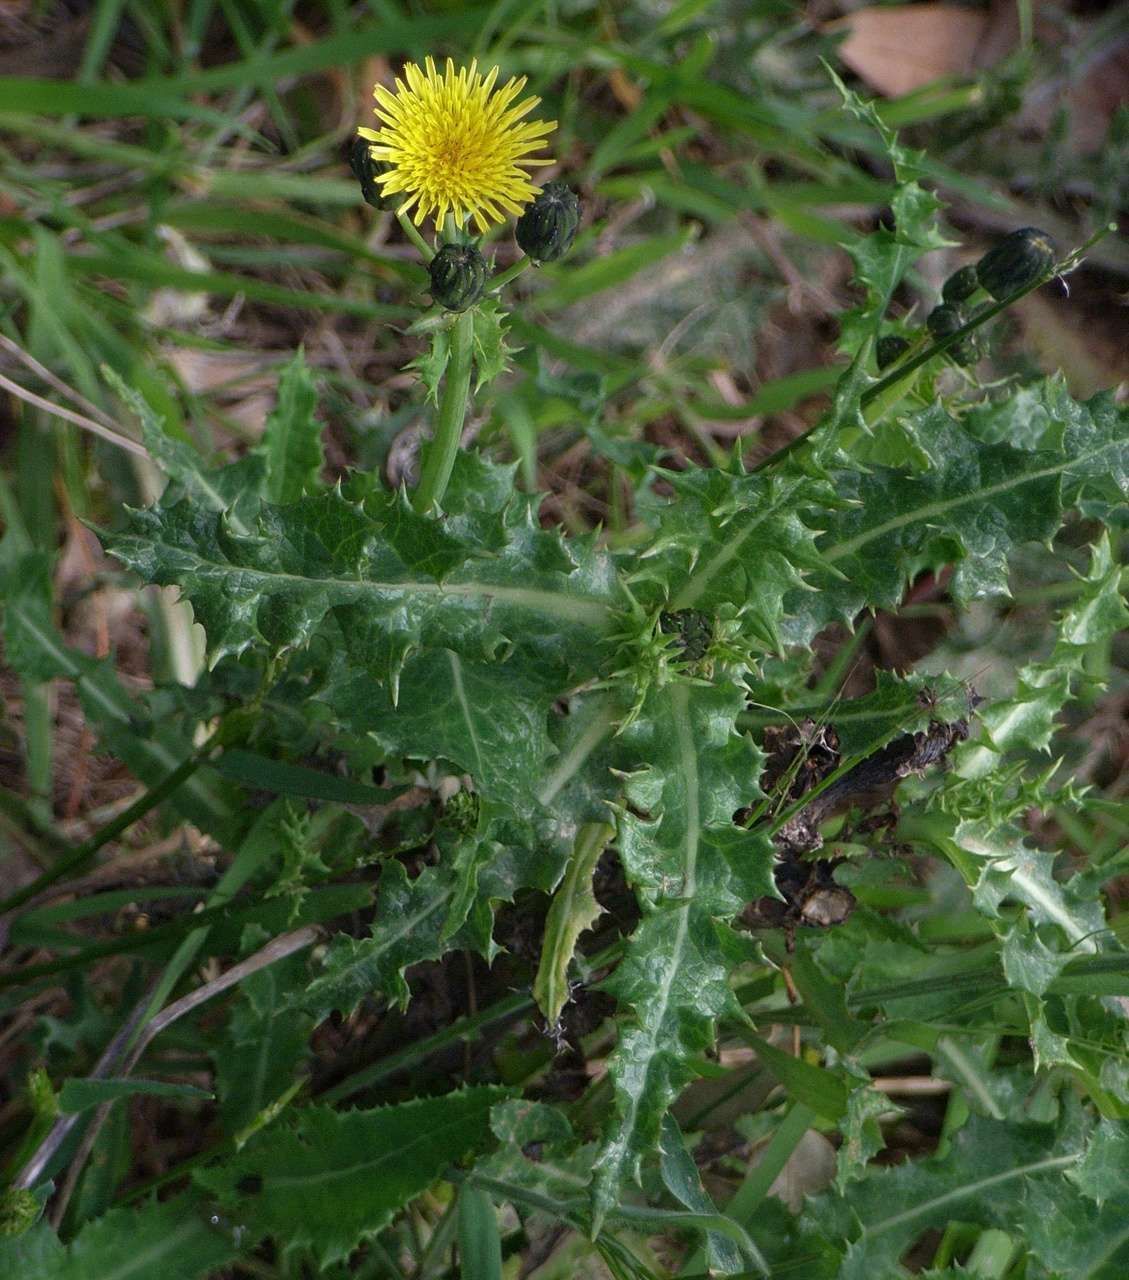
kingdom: Plantae
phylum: Tracheophyta
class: Magnoliopsida
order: Asterales
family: Asteraceae
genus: Sonchus
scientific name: Sonchus asper
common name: Prickly sow-thistle
